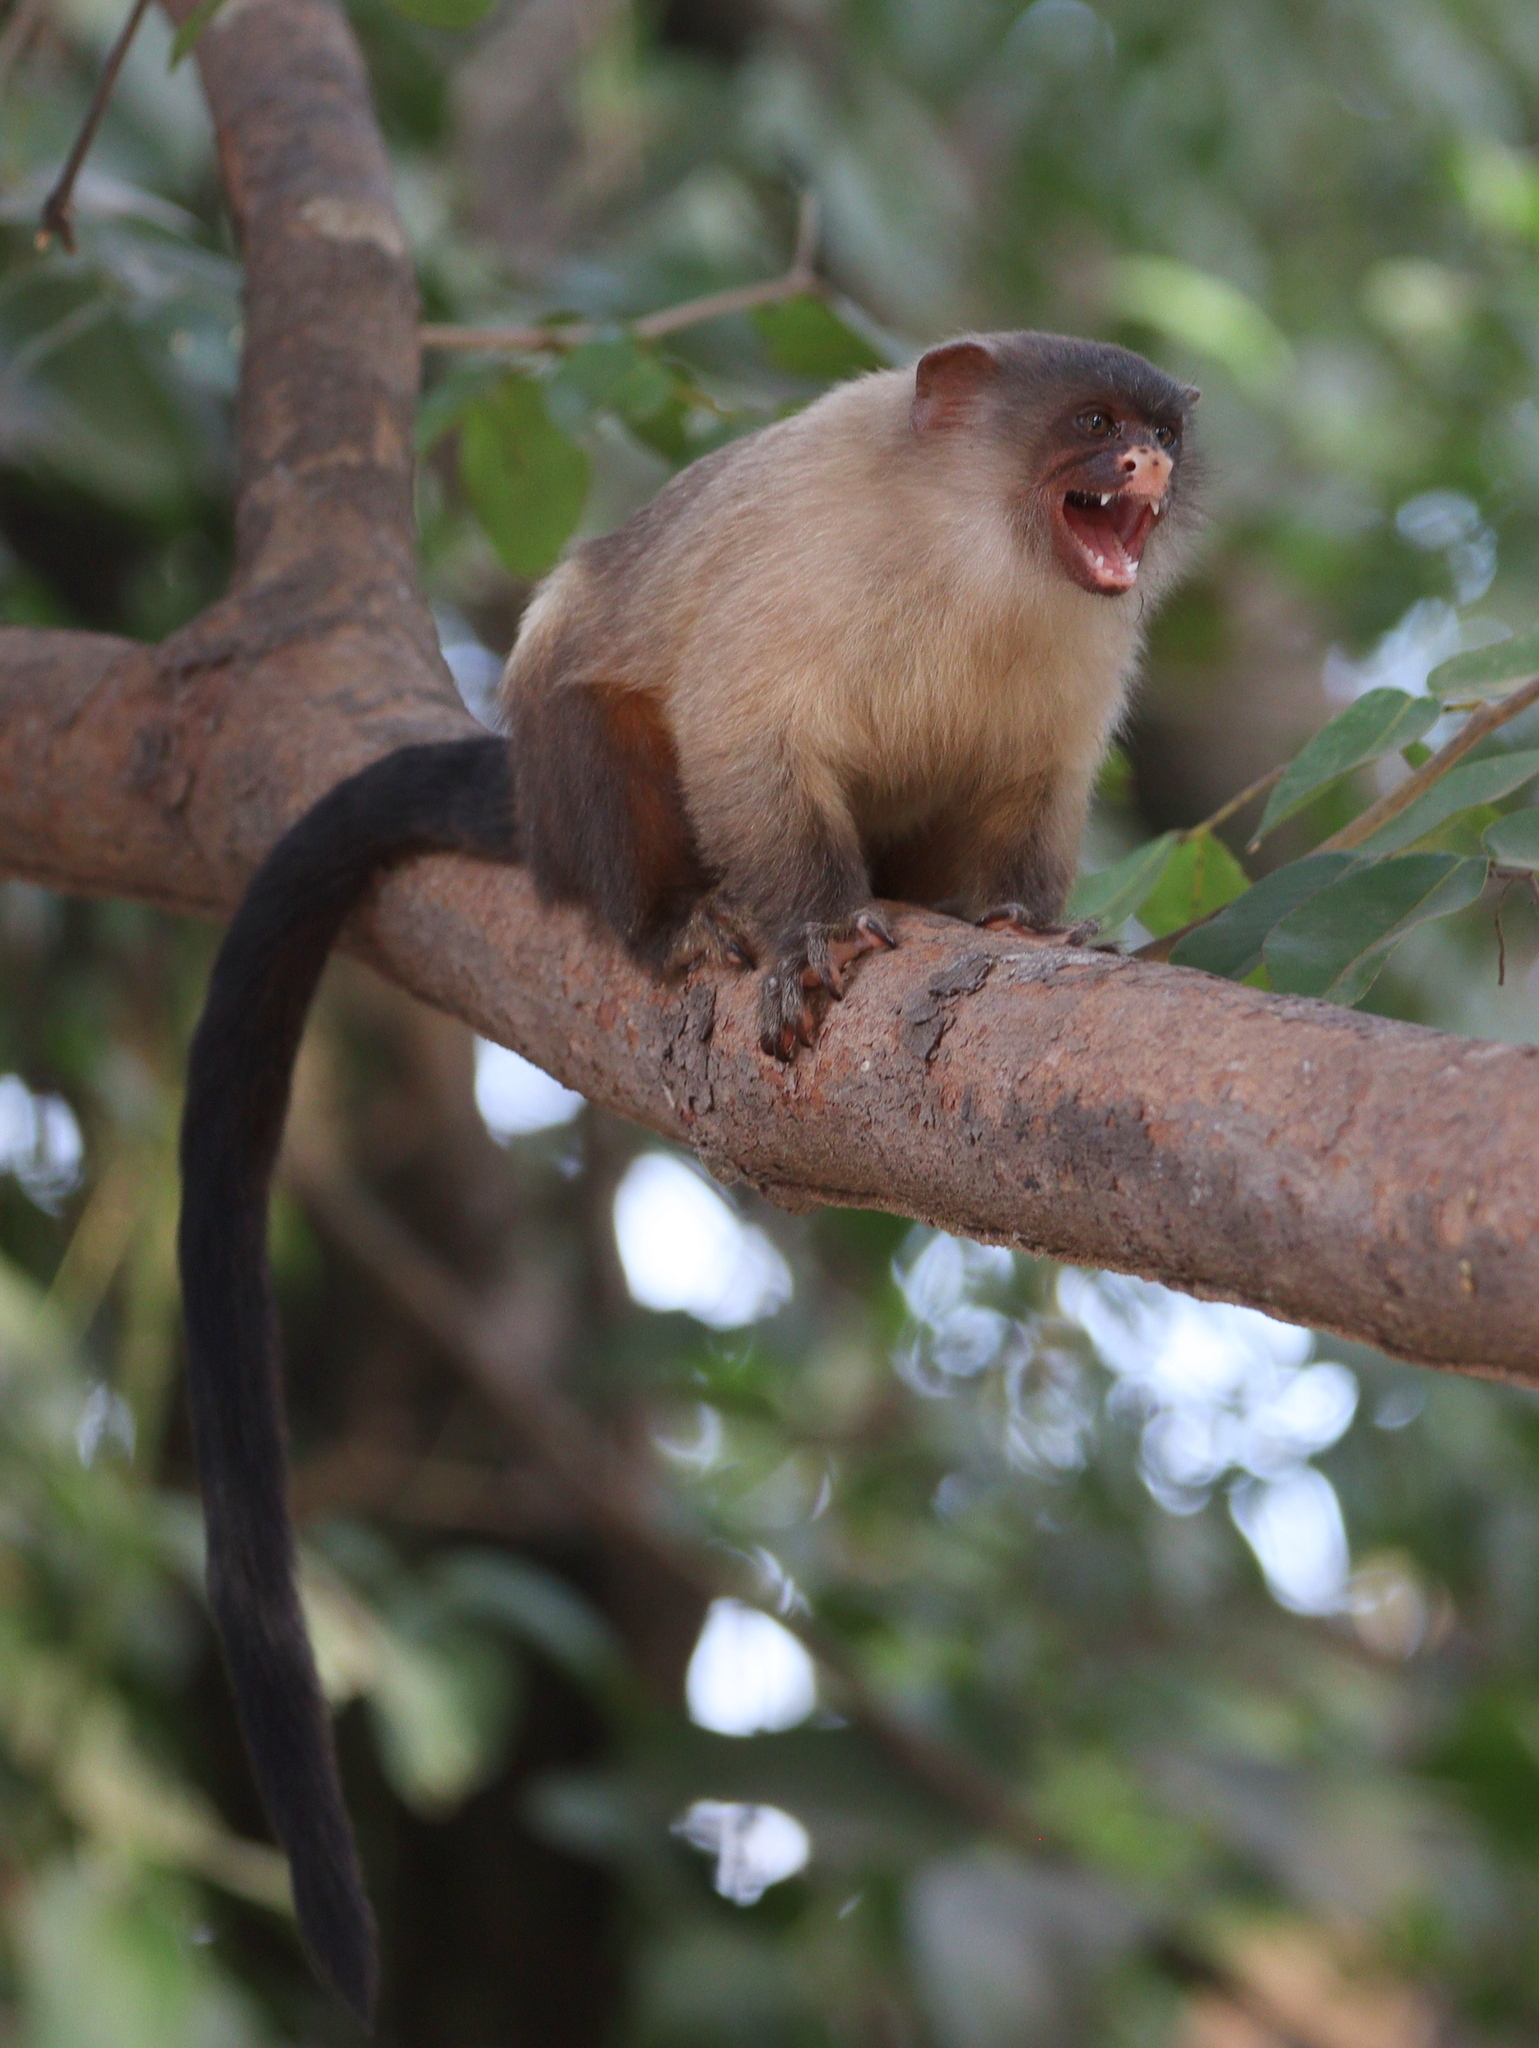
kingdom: Animalia
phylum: Chordata
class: Mammalia
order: Primates
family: Callitrichidae
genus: Mico
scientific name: Mico melanurus
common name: Black-tailed marmoset
